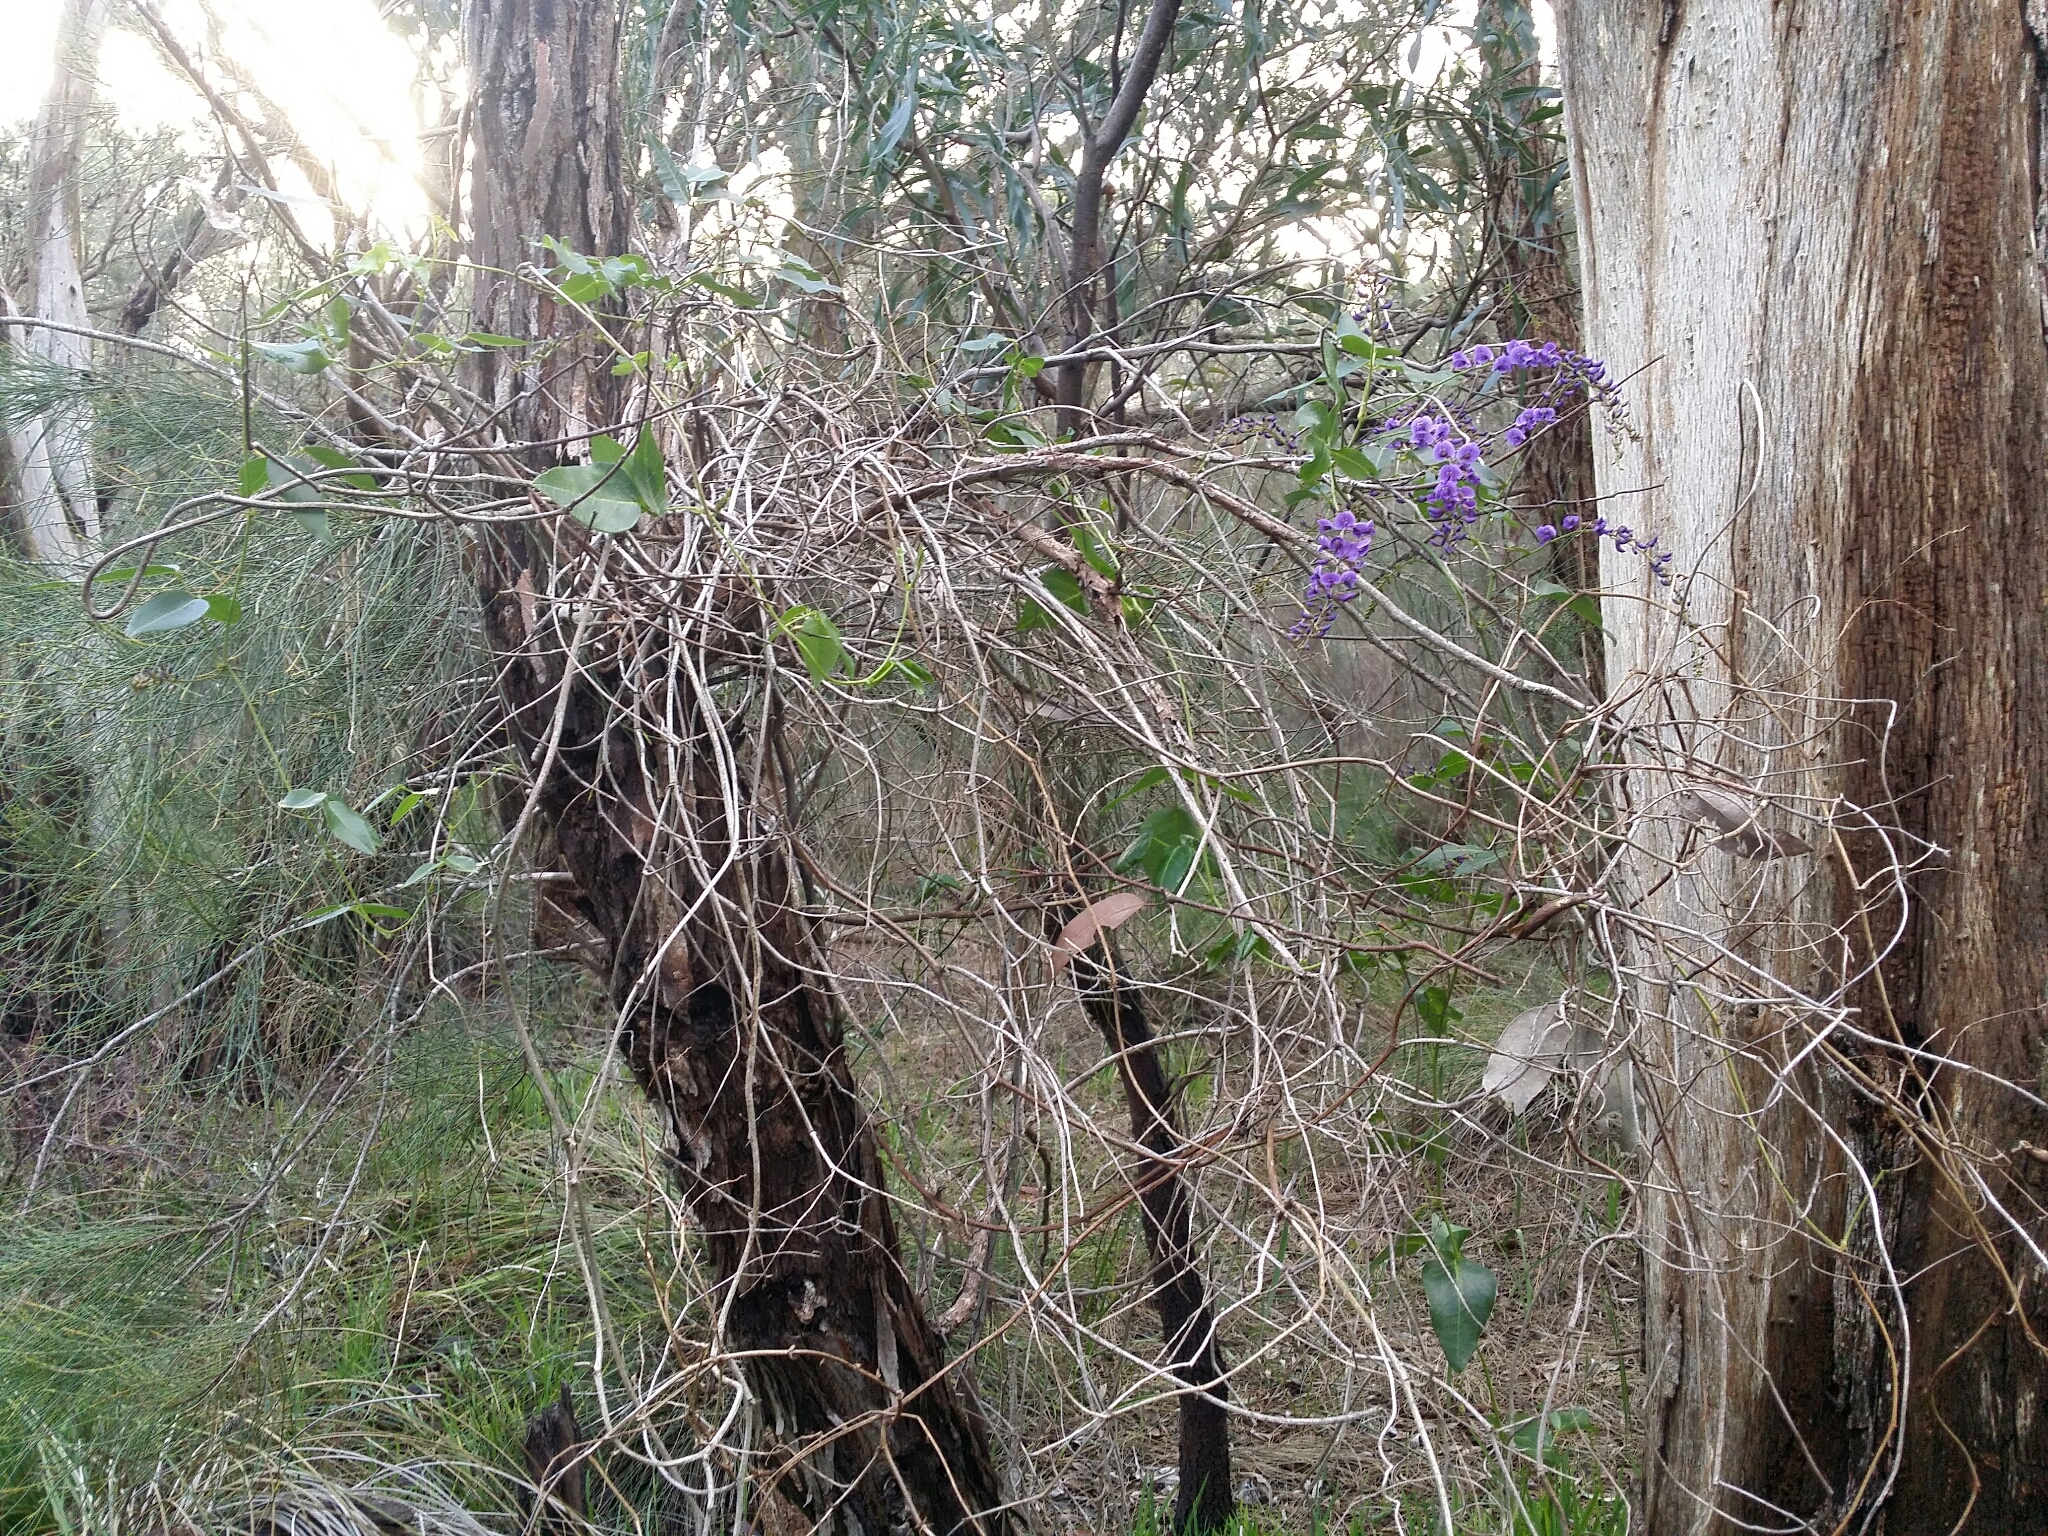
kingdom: Plantae
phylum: Tracheophyta
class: Magnoliopsida
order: Fabales
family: Fabaceae
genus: Hardenbergia
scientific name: Hardenbergia comptoniana
